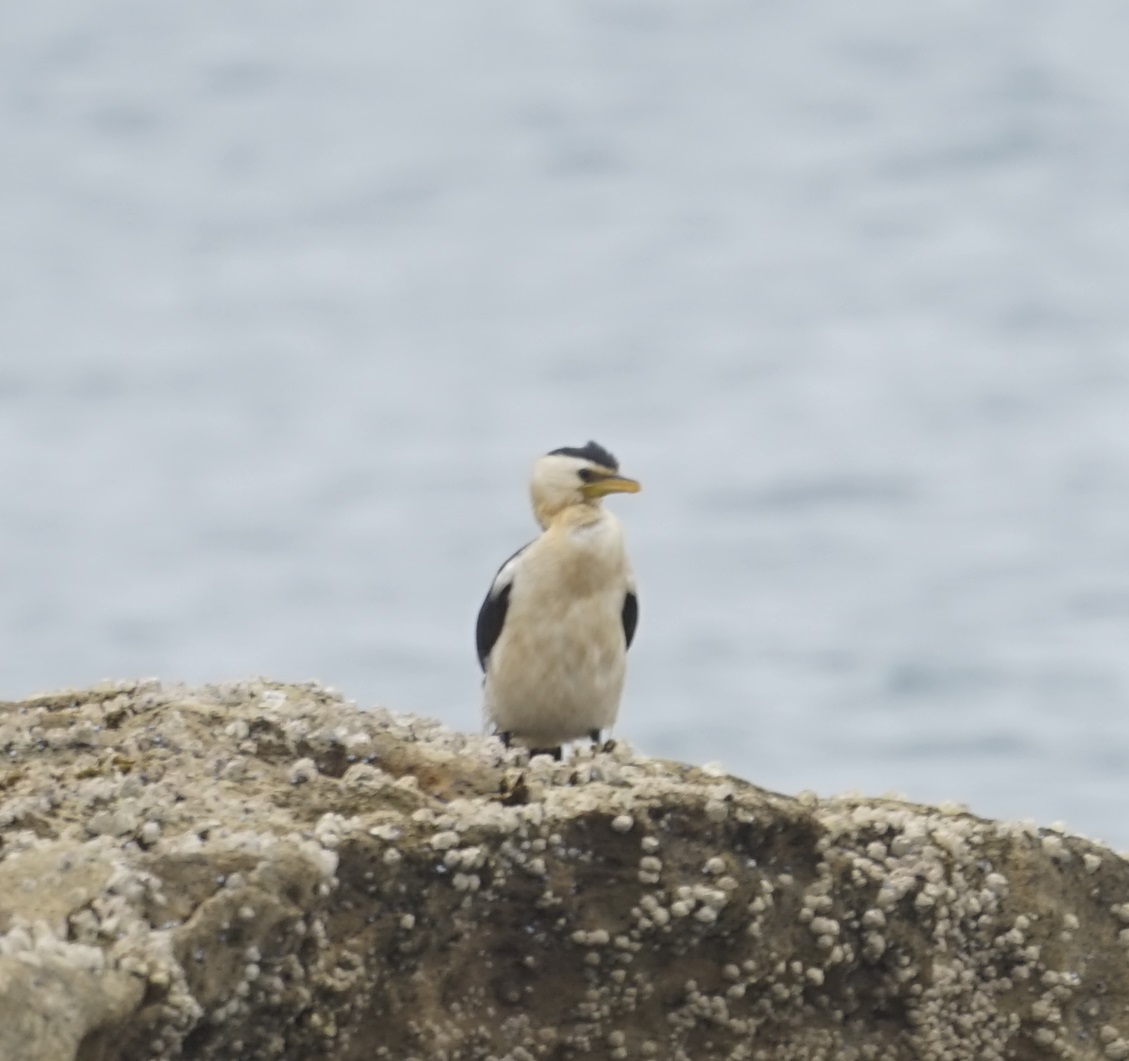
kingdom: Animalia
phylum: Chordata
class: Aves
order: Suliformes
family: Phalacrocoracidae
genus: Microcarbo
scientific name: Microcarbo melanoleucos
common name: Little pied cormorant
